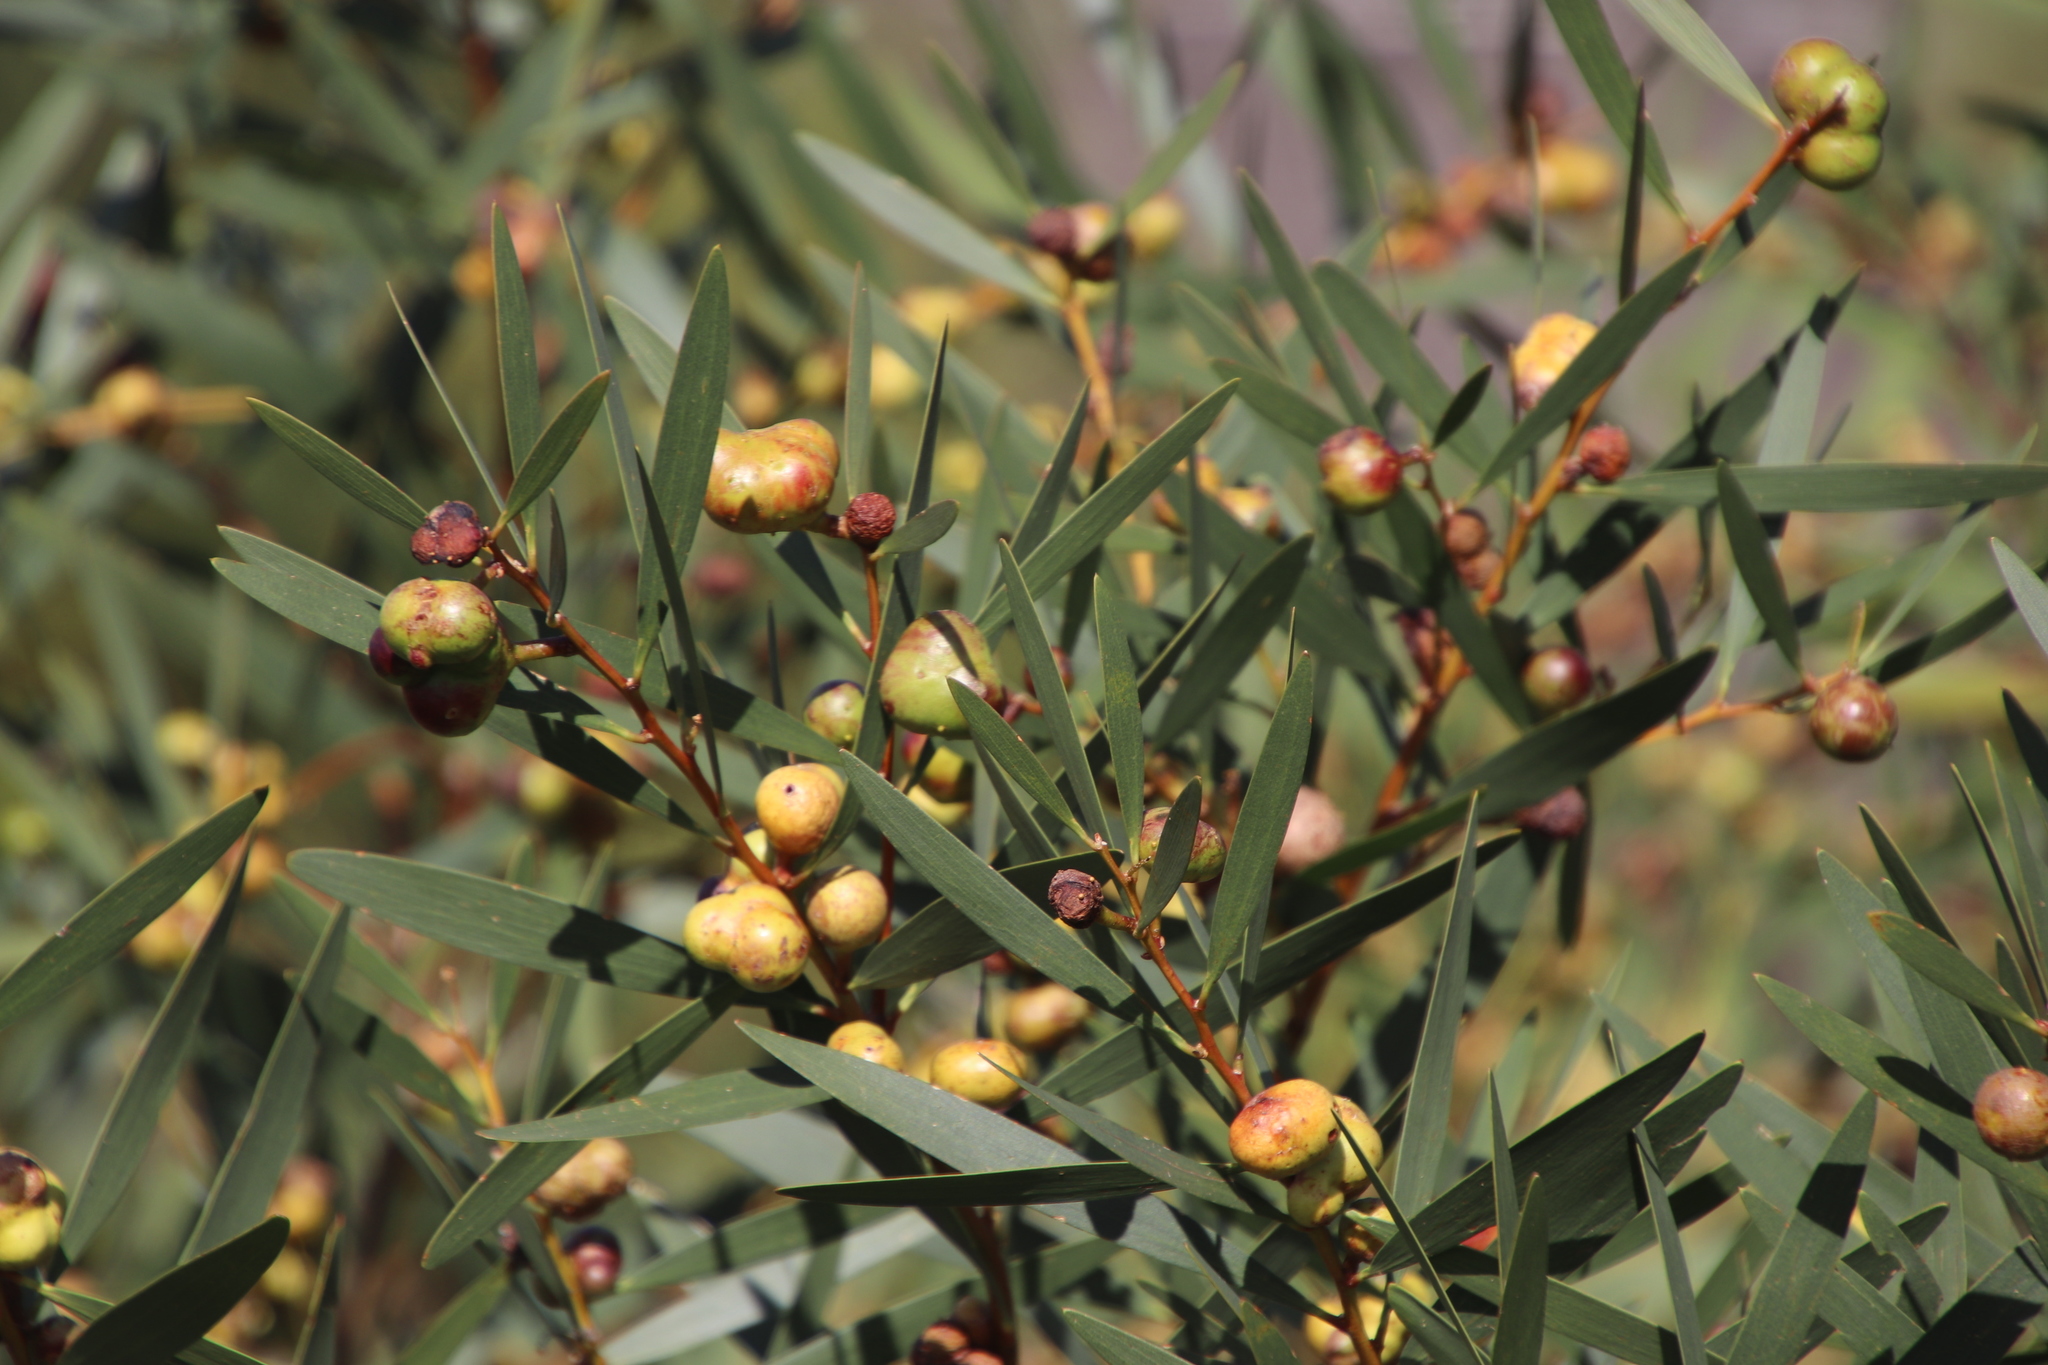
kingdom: Plantae
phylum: Tracheophyta
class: Magnoliopsida
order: Fabales
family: Fabaceae
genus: Acacia
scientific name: Acacia longifolia
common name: Sydney golden wattle
